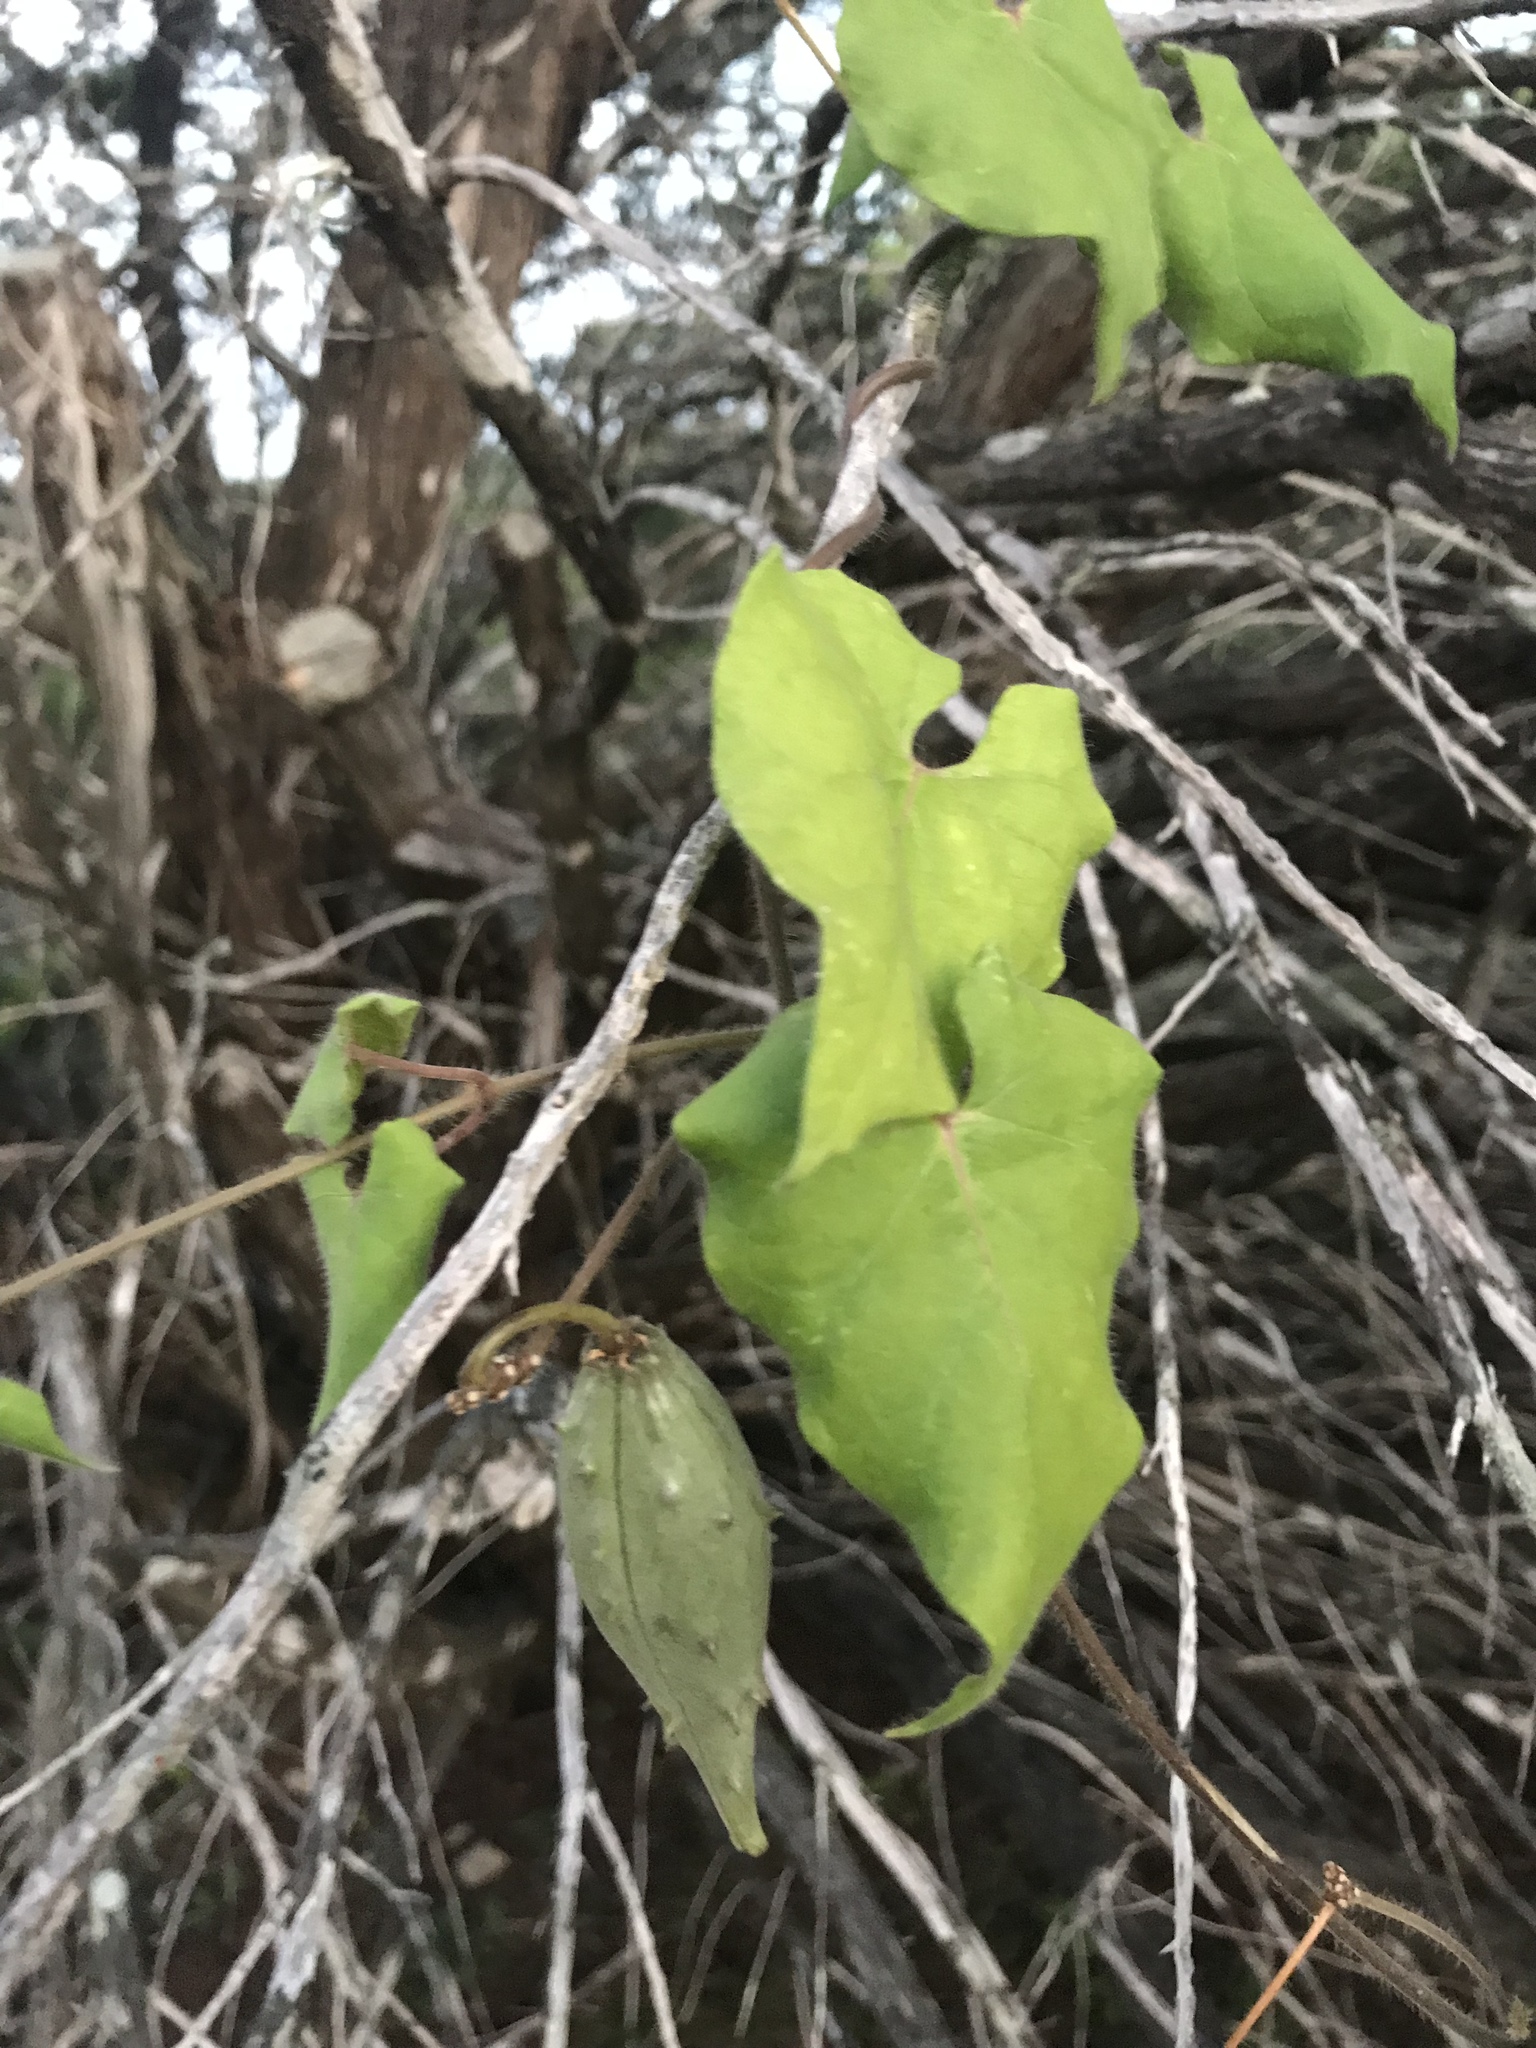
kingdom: Plantae
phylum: Tracheophyta
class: Magnoliopsida
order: Gentianales
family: Apocynaceae
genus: Dictyanthus
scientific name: Dictyanthus reticulatus
